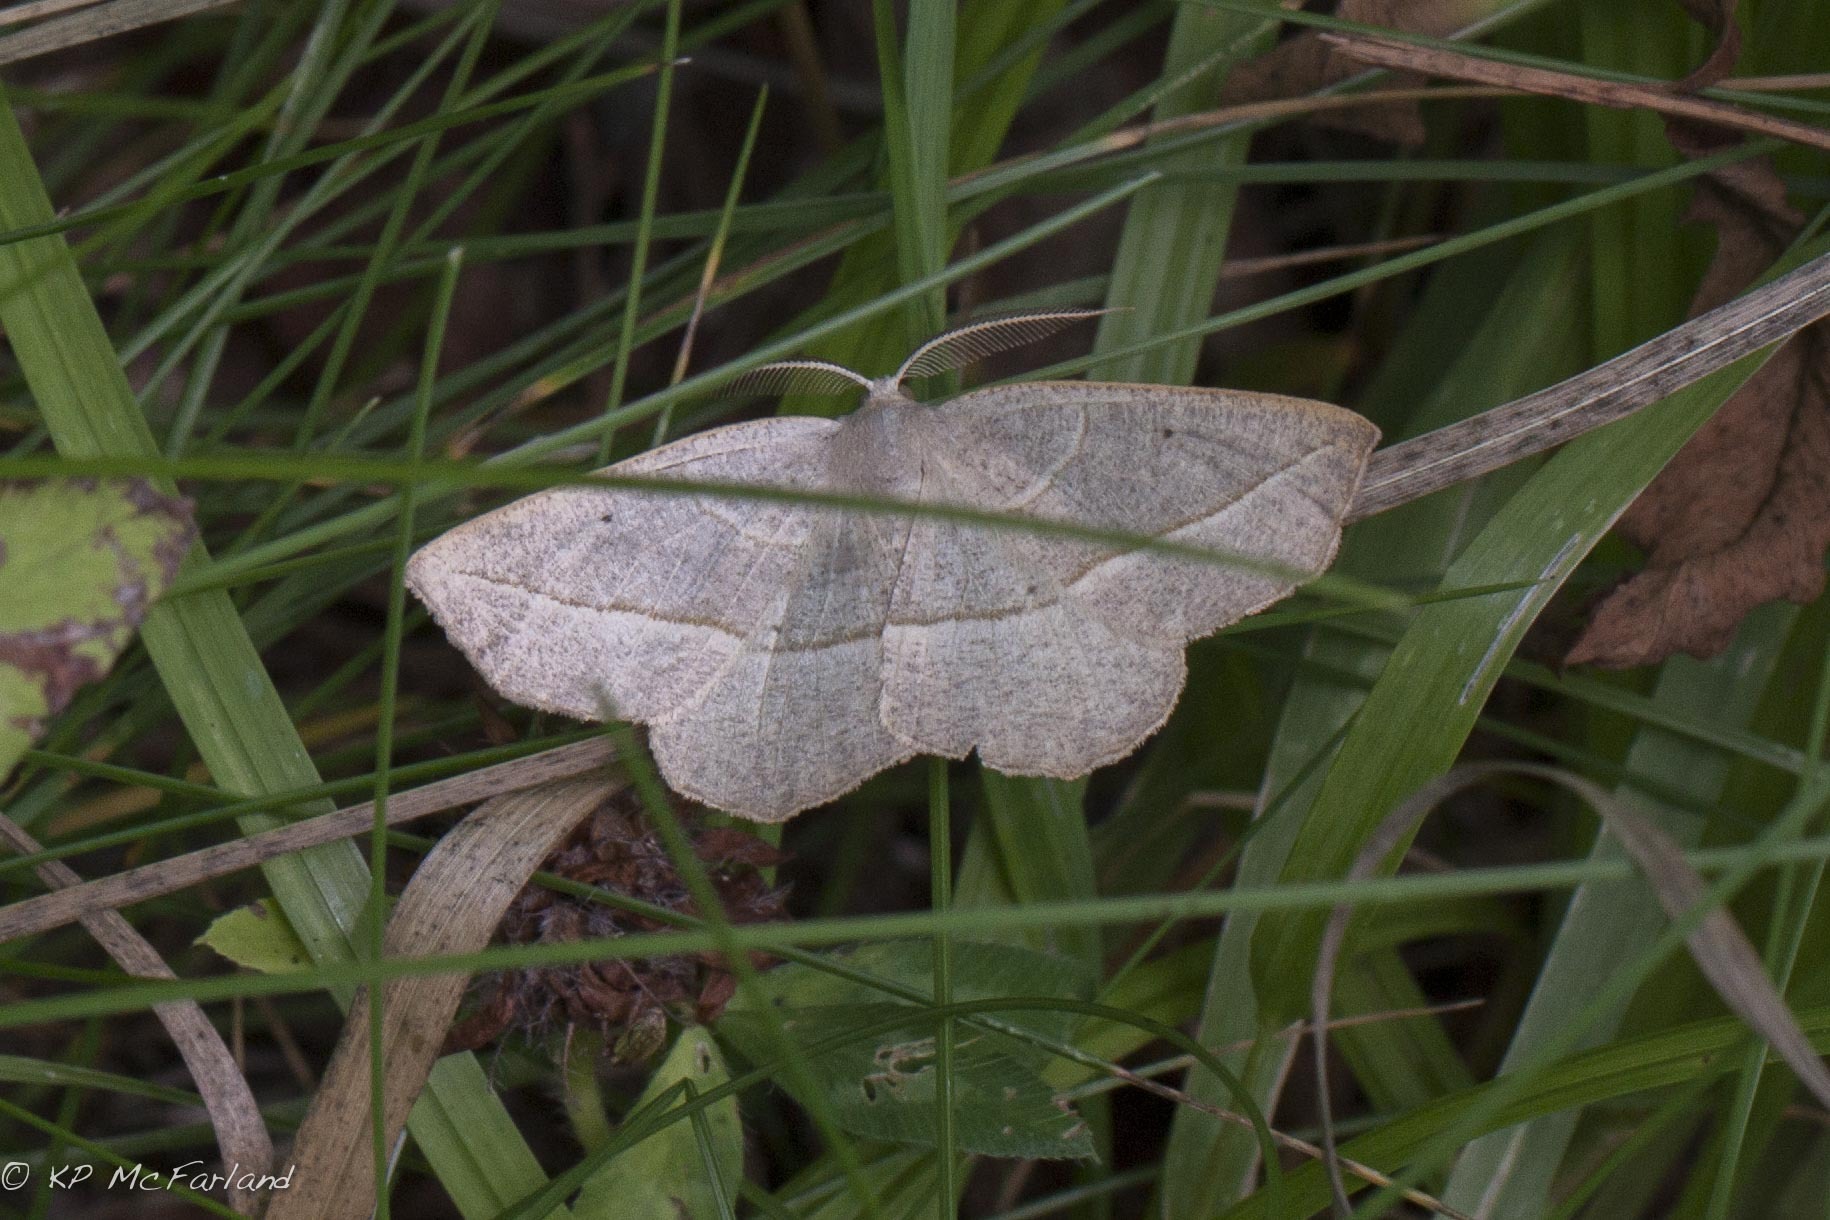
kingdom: Animalia
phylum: Arthropoda
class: Insecta
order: Lepidoptera
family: Geometridae
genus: Eusarca
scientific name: Eusarca confusaria
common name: Confused eusarca
